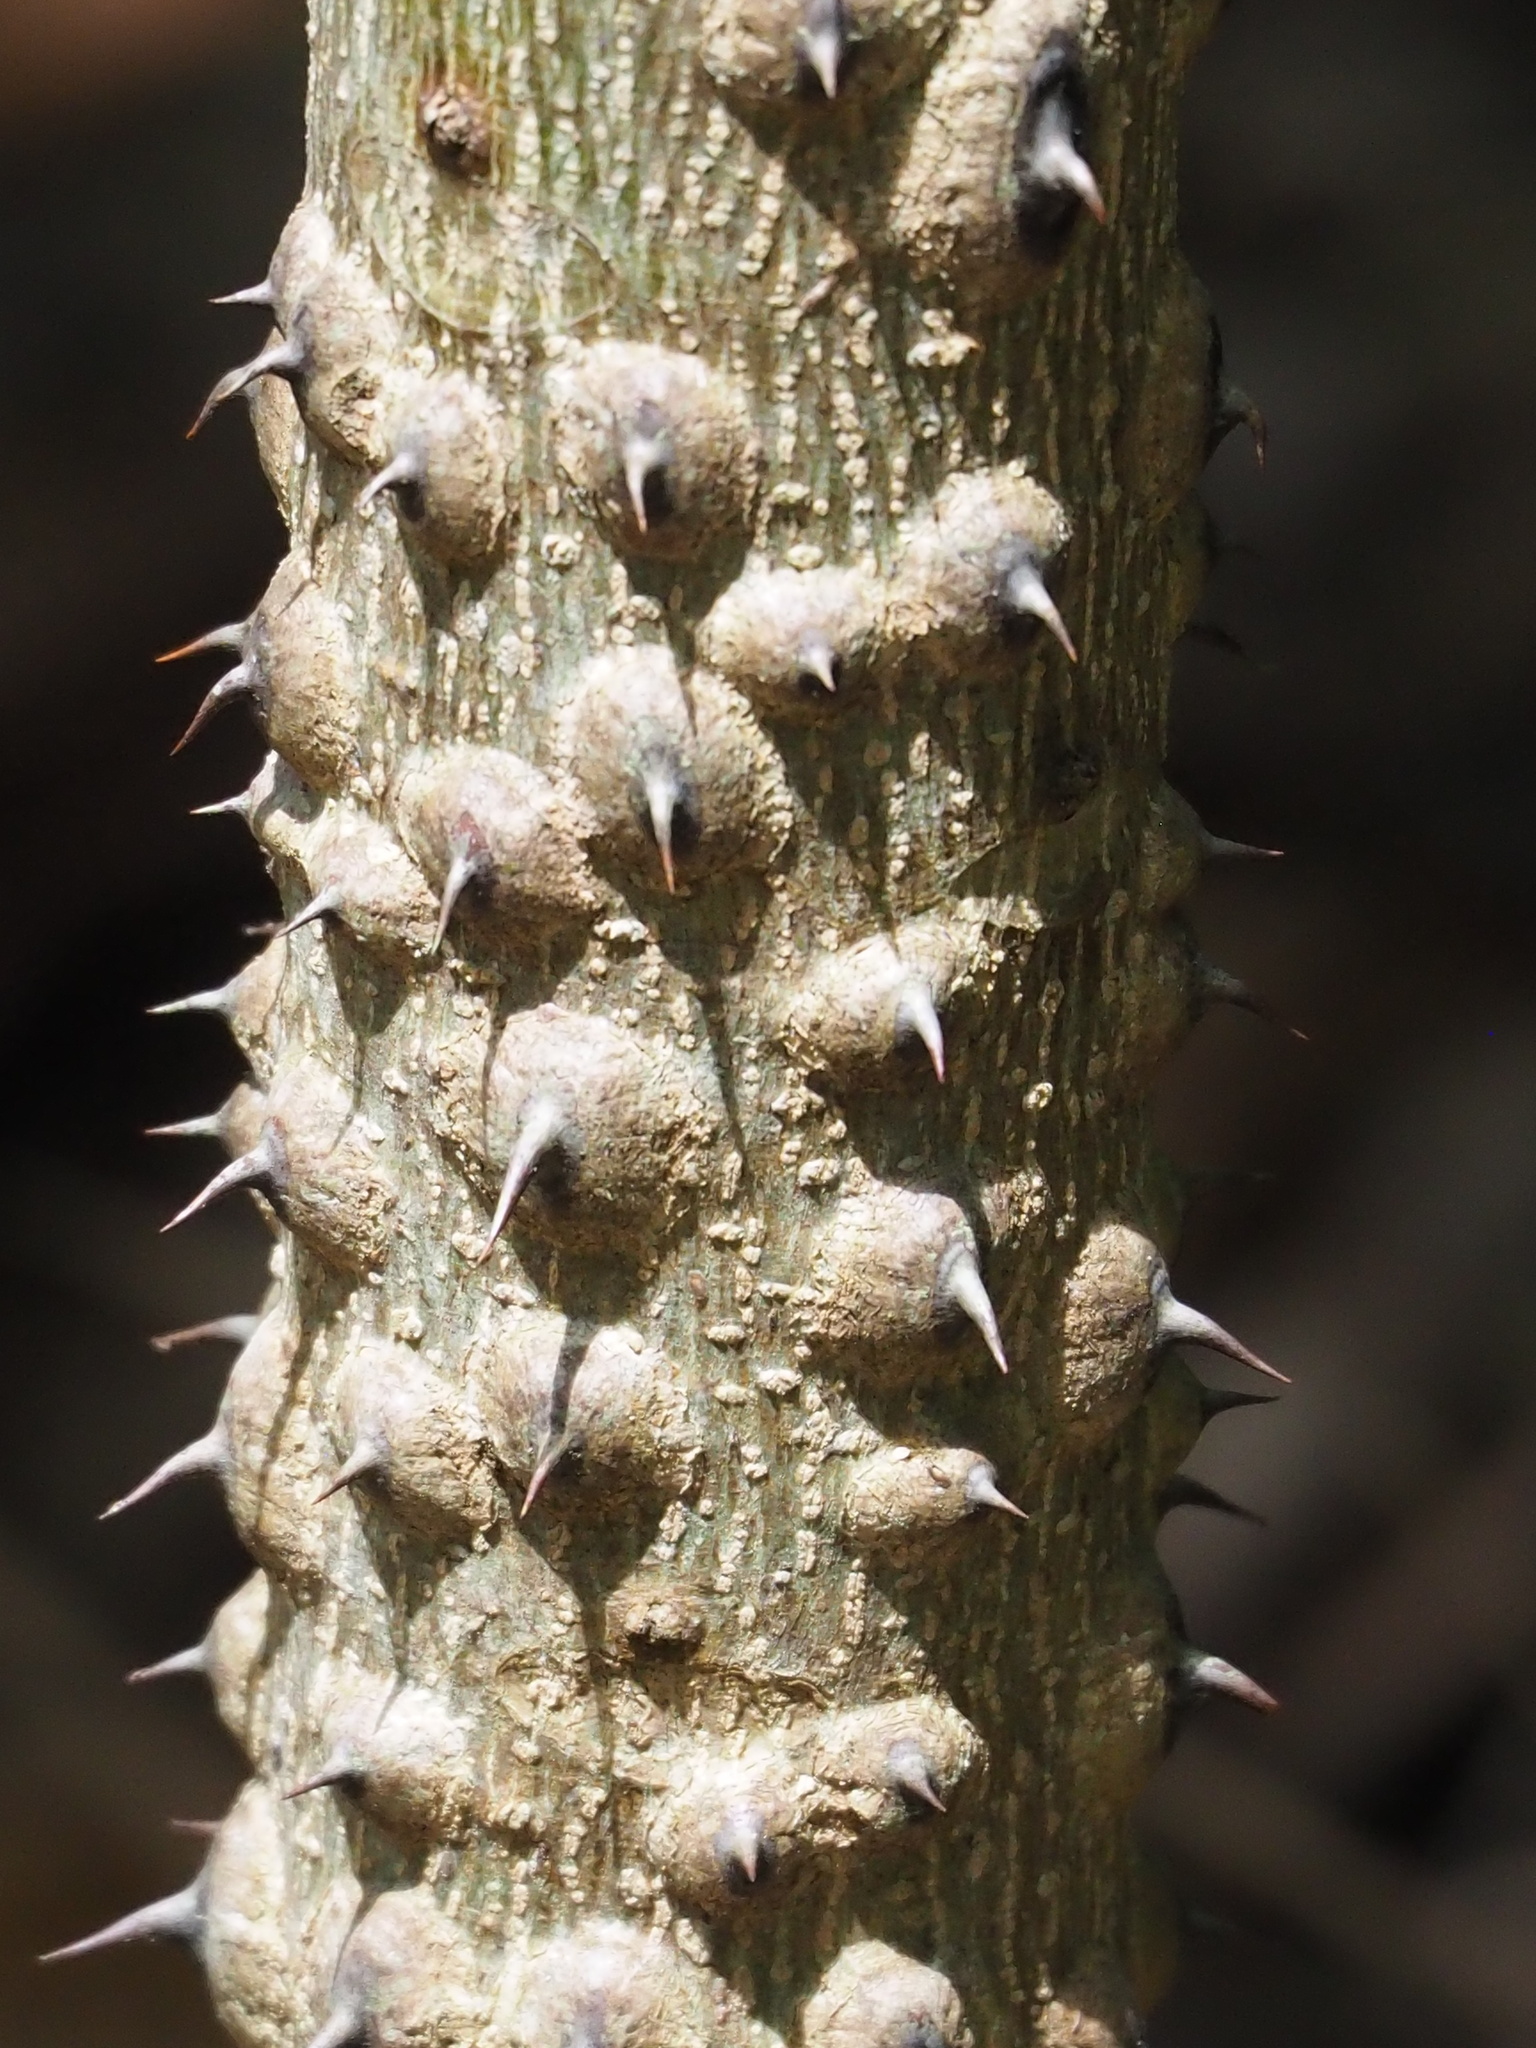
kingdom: Plantae
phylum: Tracheophyta
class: Magnoliopsida
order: Sapindales
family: Rutaceae
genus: Zanthoxylum
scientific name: Zanthoxylum ailanthoides
